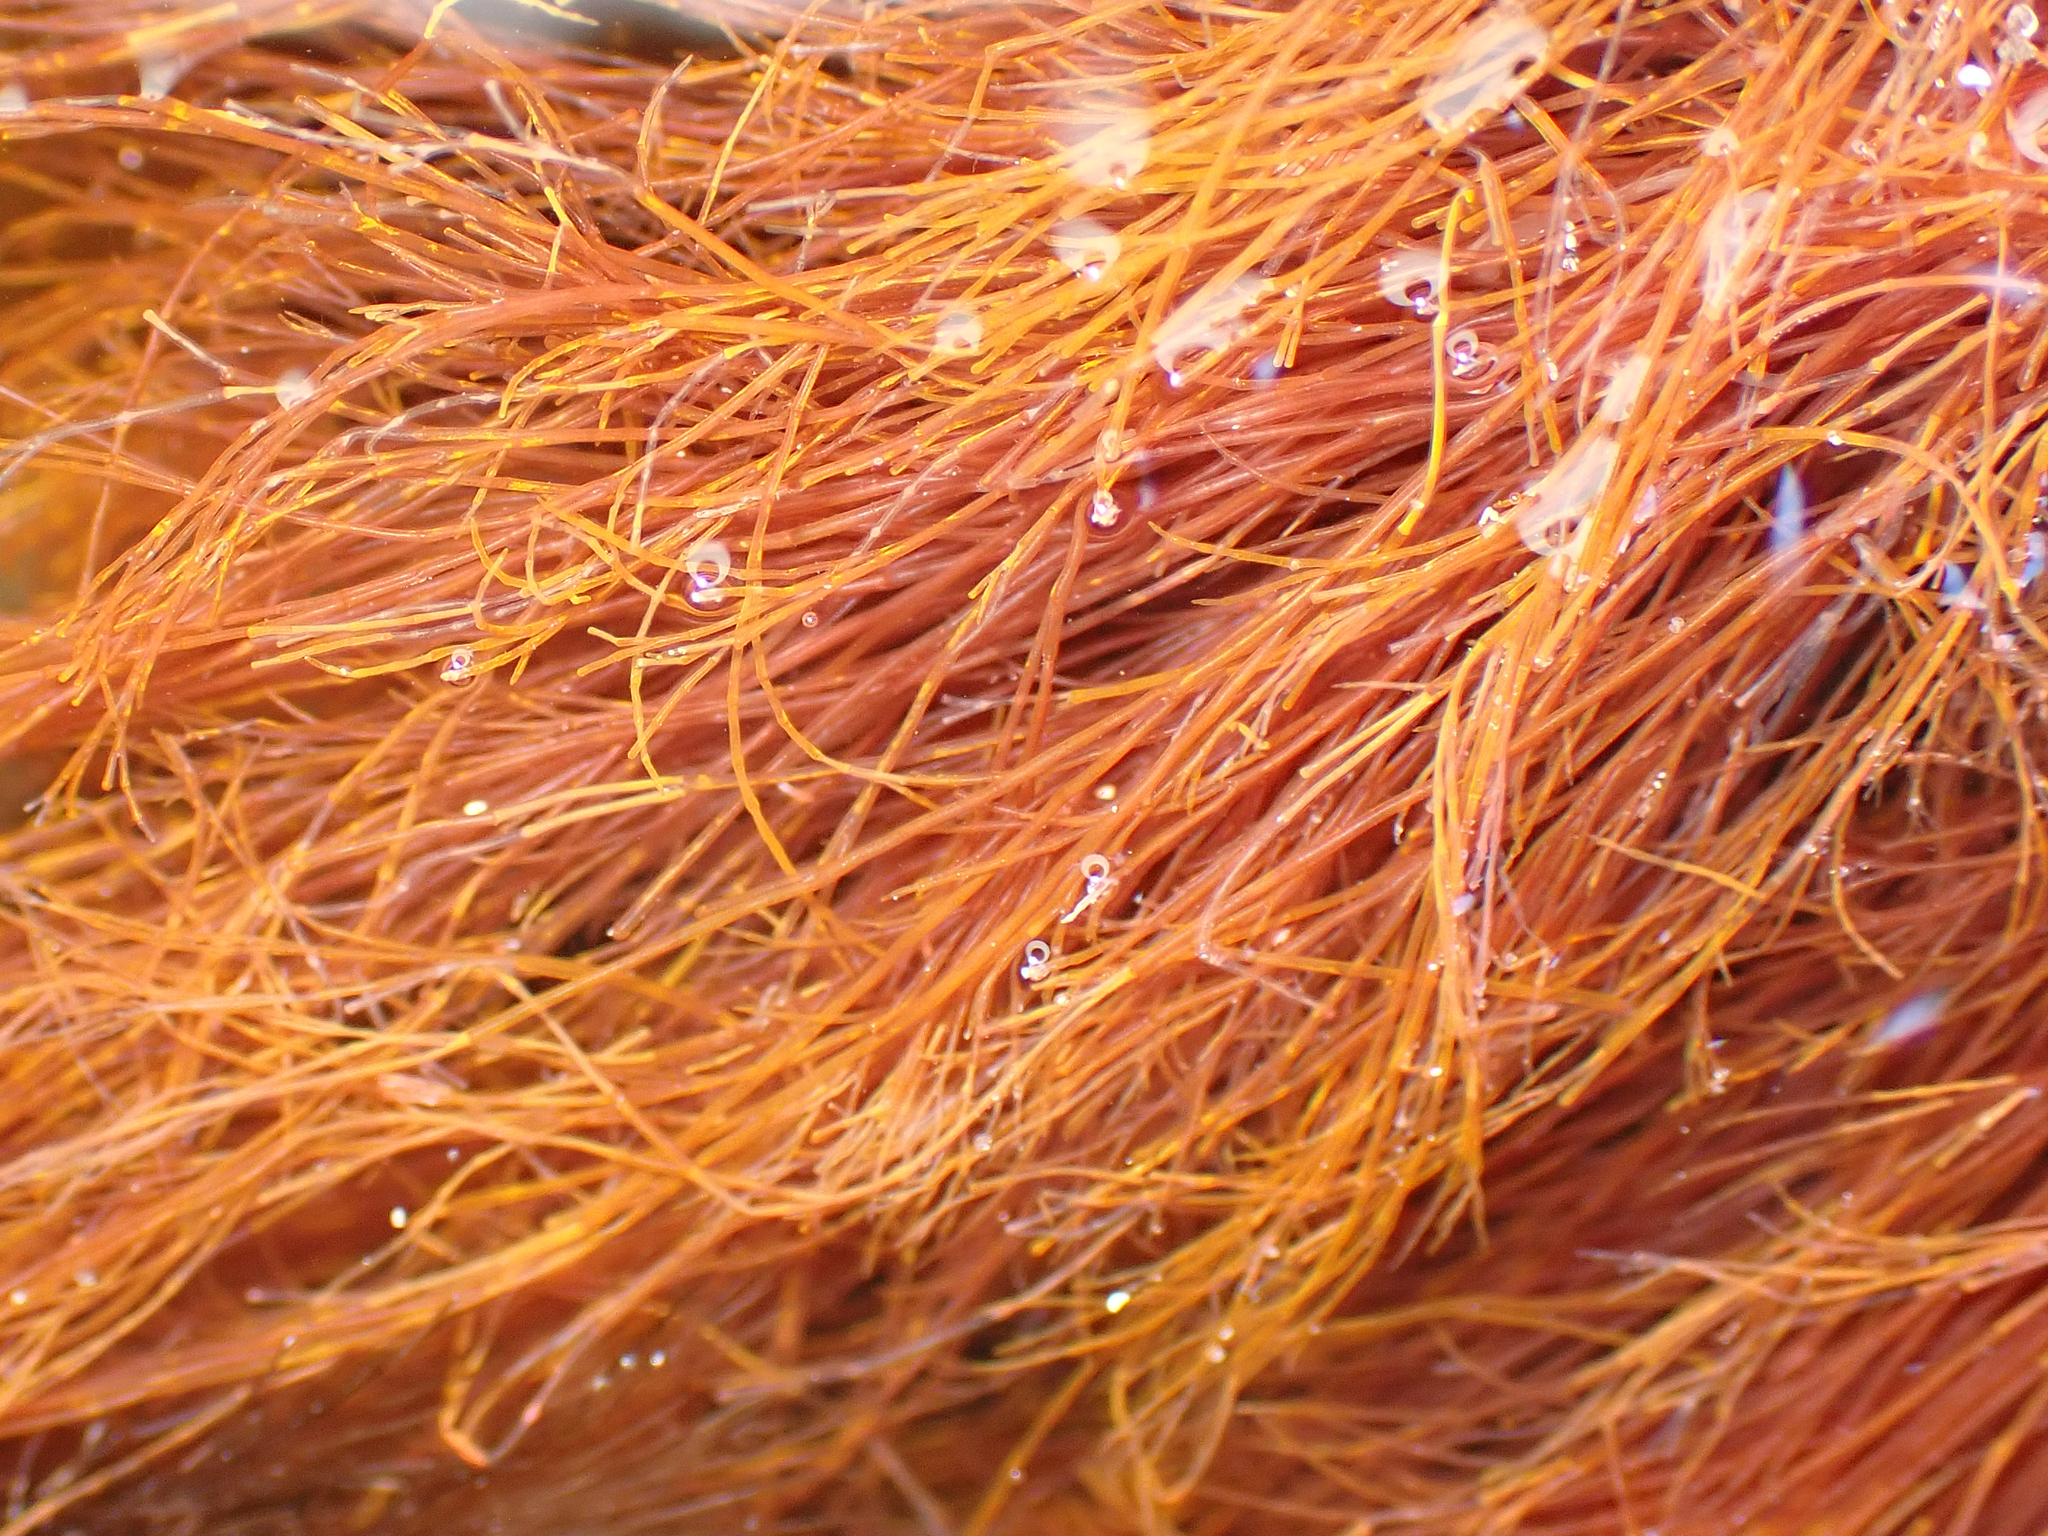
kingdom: Plantae
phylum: Rhodophyta
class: Florideophyceae
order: Ceramiales
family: Wrangeliaceae
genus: Anotrichium
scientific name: Anotrichium crinitum
